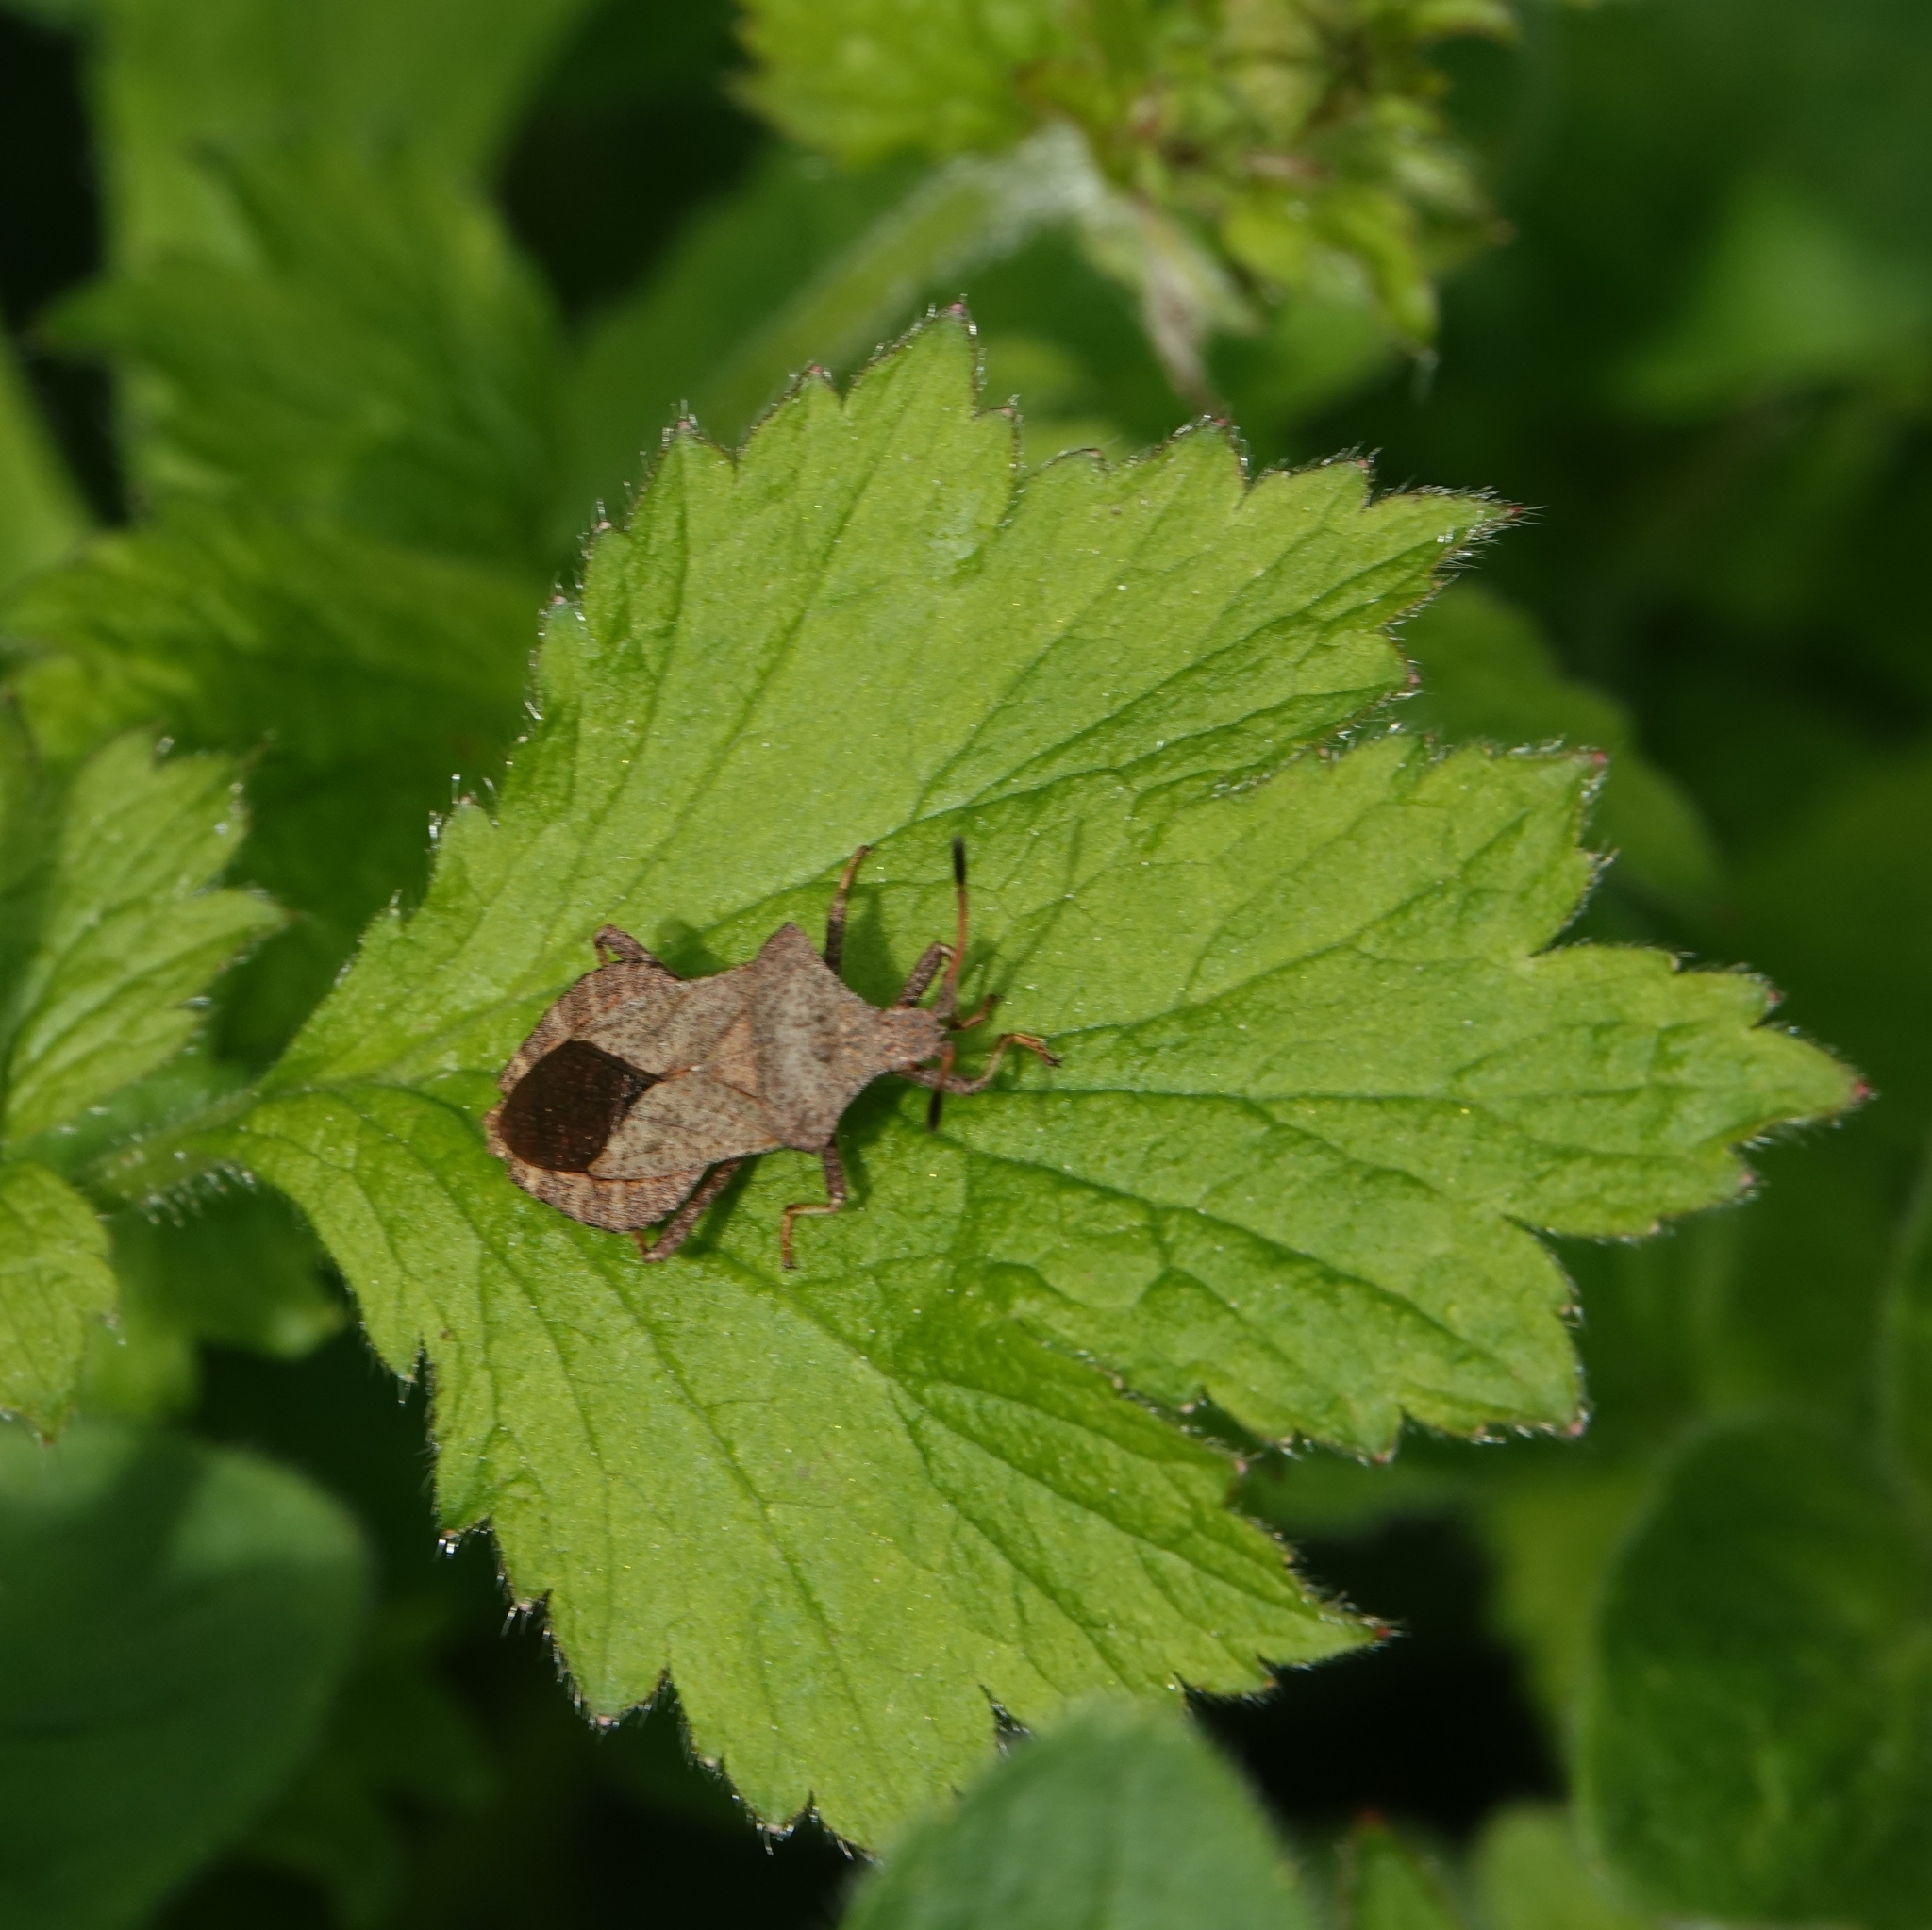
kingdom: Animalia
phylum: Arthropoda
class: Insecta
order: Hemiptera
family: Coreidae
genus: Coreus
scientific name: Coreus marginatus
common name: Dock bug
